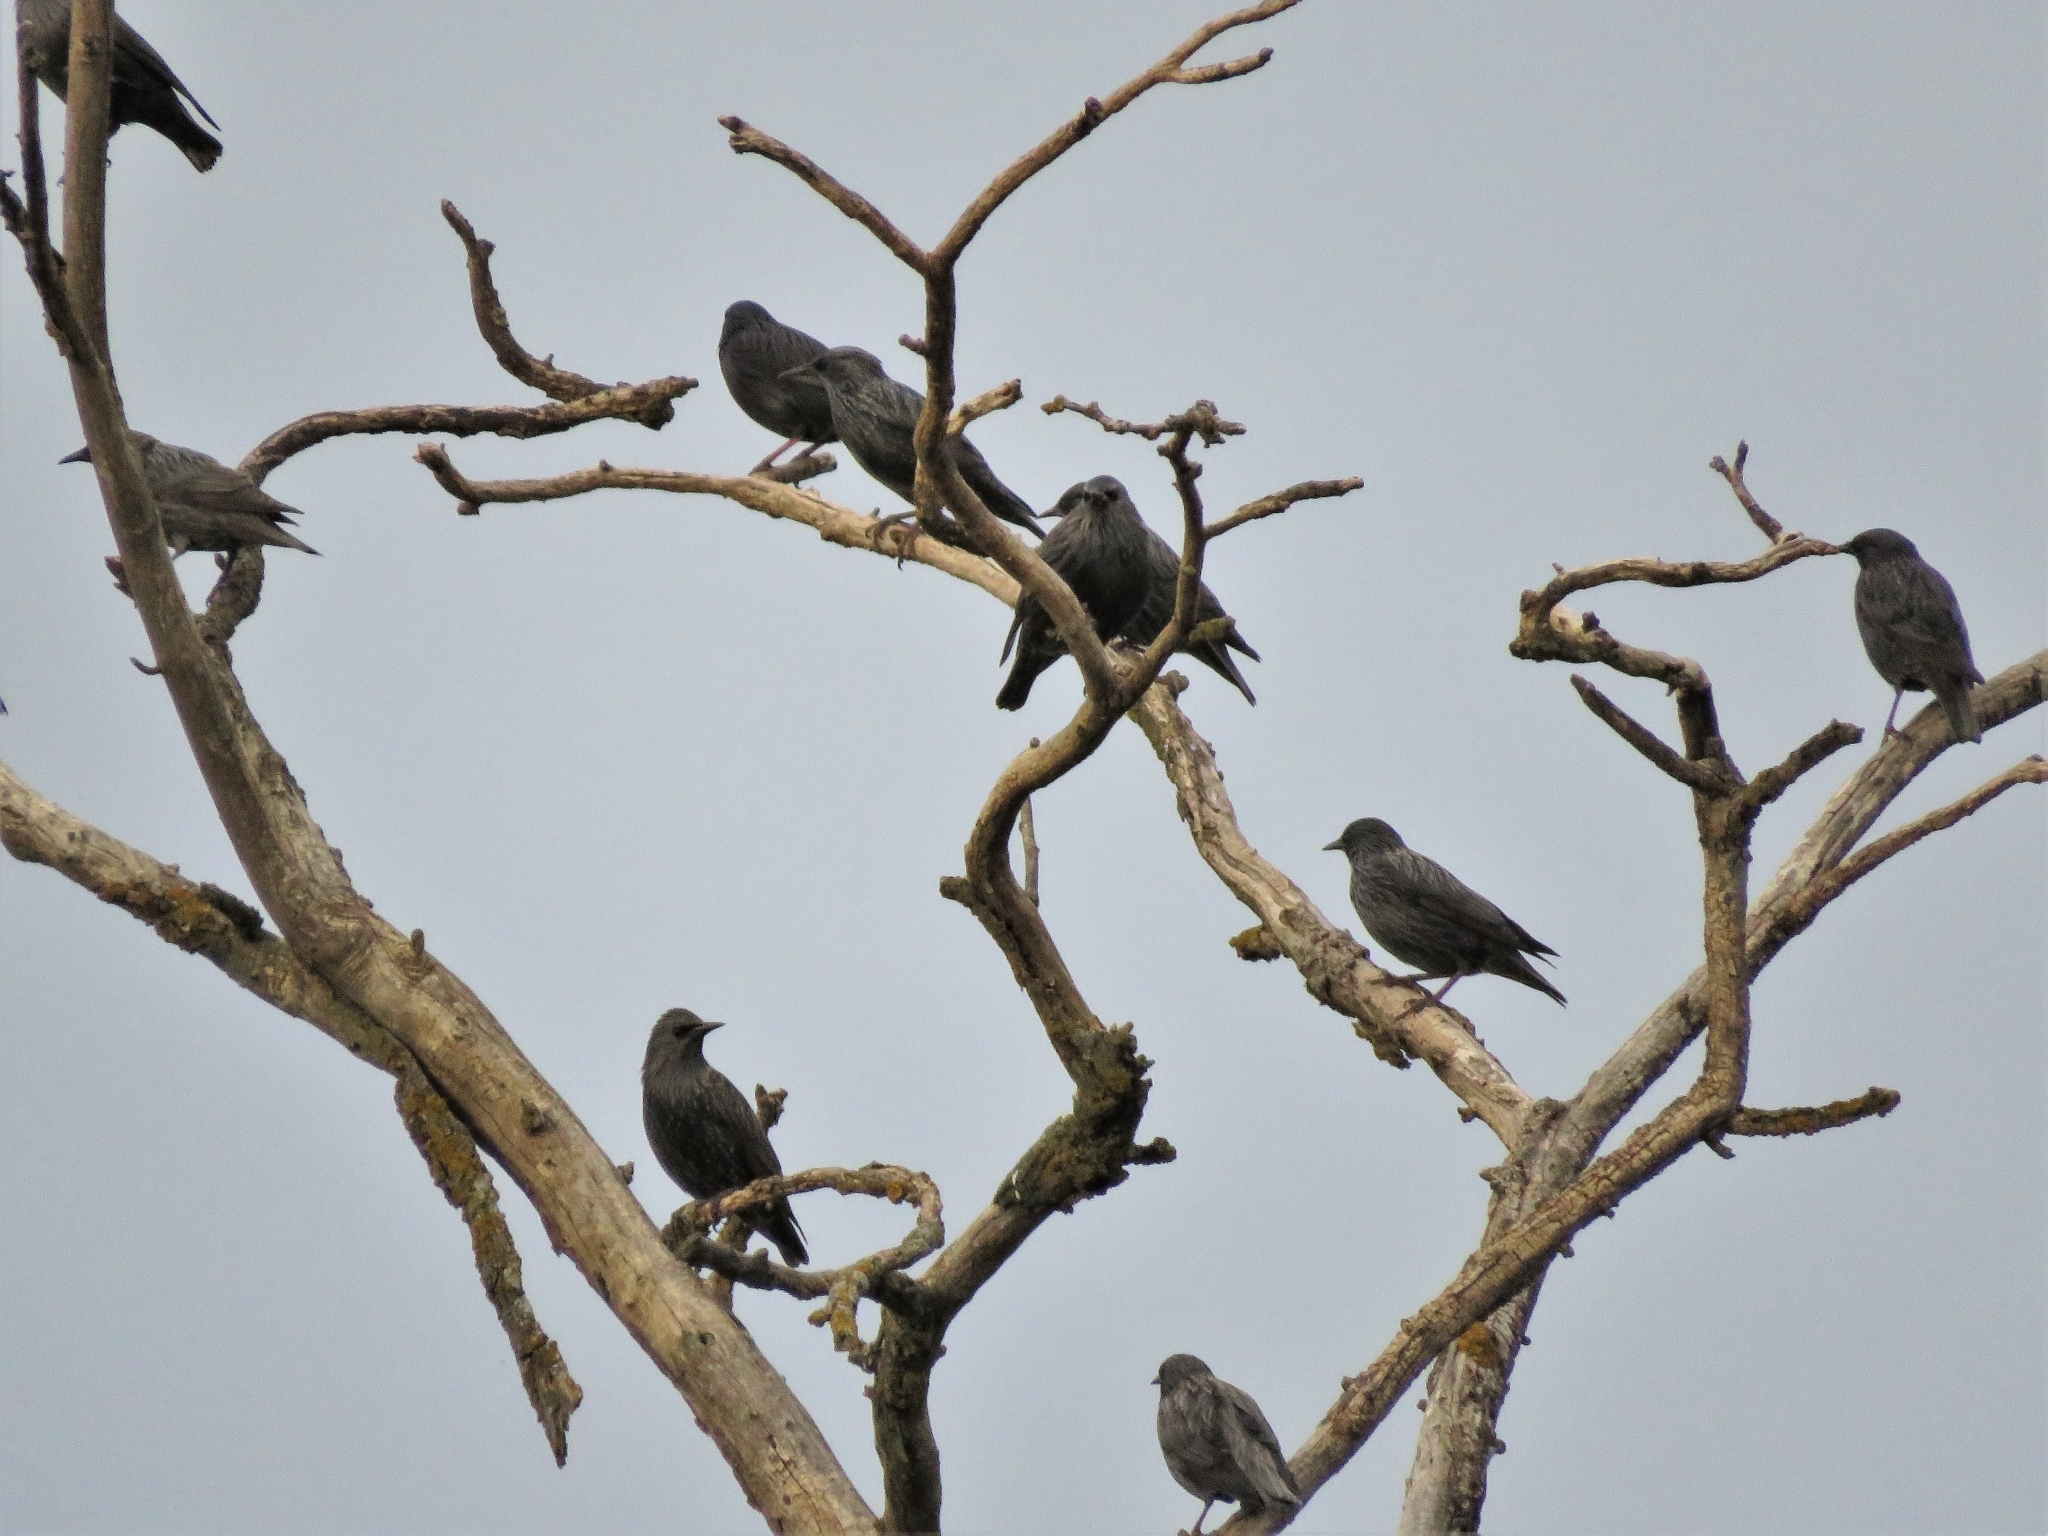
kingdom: Animalia
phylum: Chordata
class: Aves
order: Passeriformes
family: Sturnidae
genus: Sturnus
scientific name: Sturnus unicolor
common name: Spotless starling
